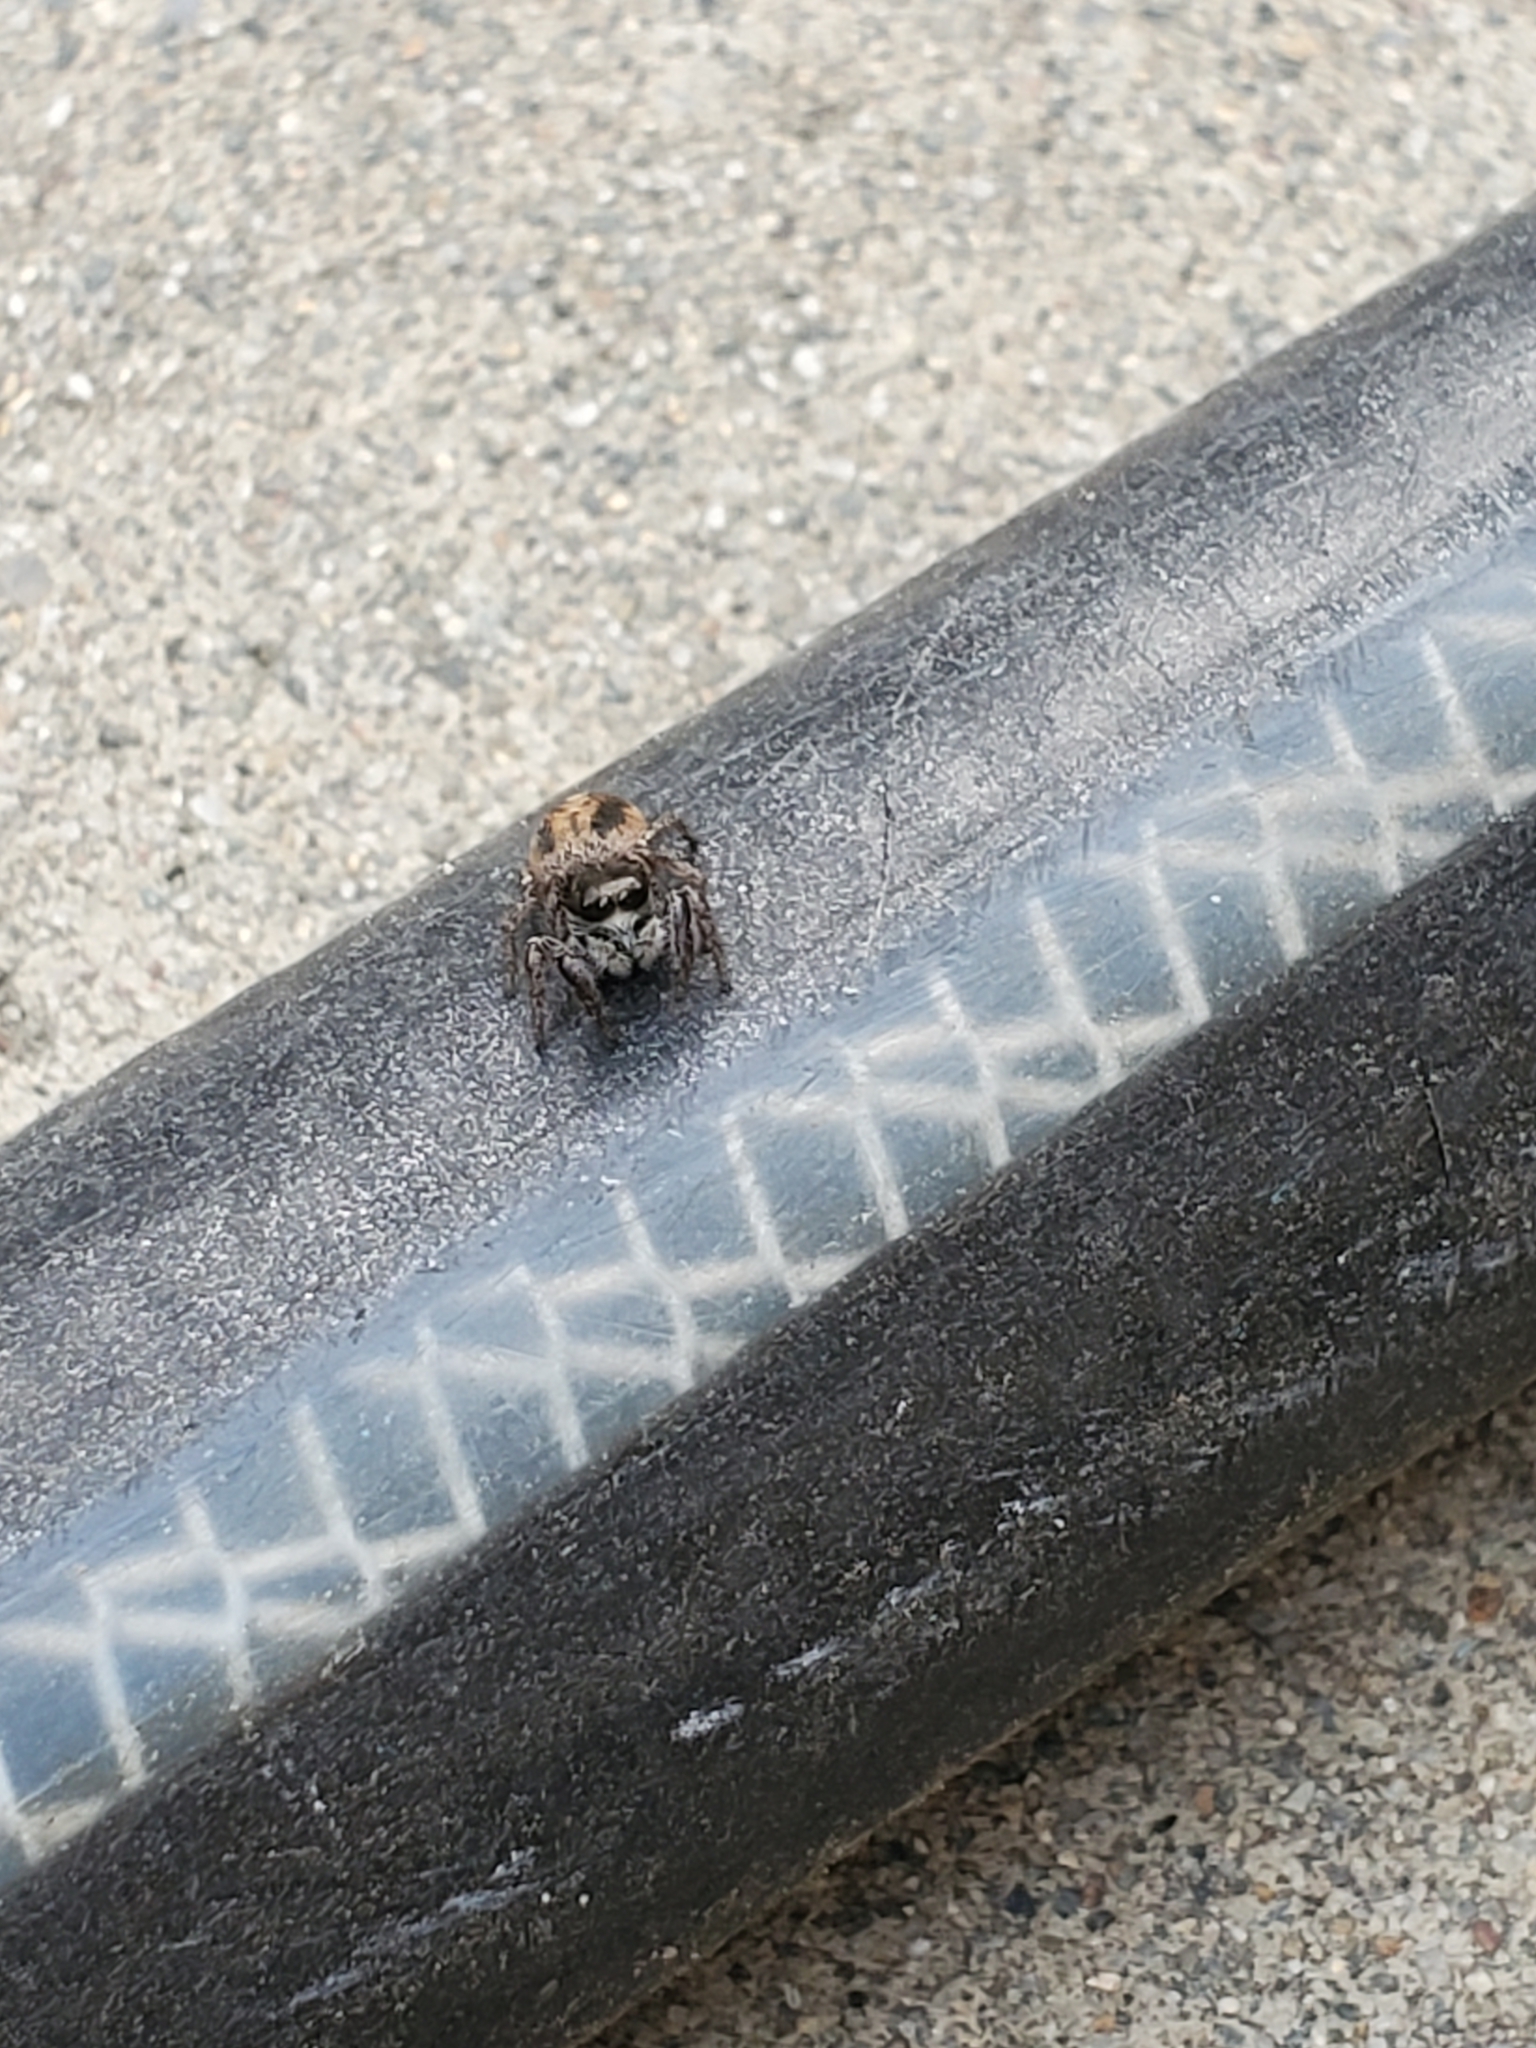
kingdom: Animalia
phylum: Arthropoda
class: Arachnida
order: Araneae
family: Salticidae
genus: Habronattus
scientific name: Habronattus pyrrithrix
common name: Jumping spider
